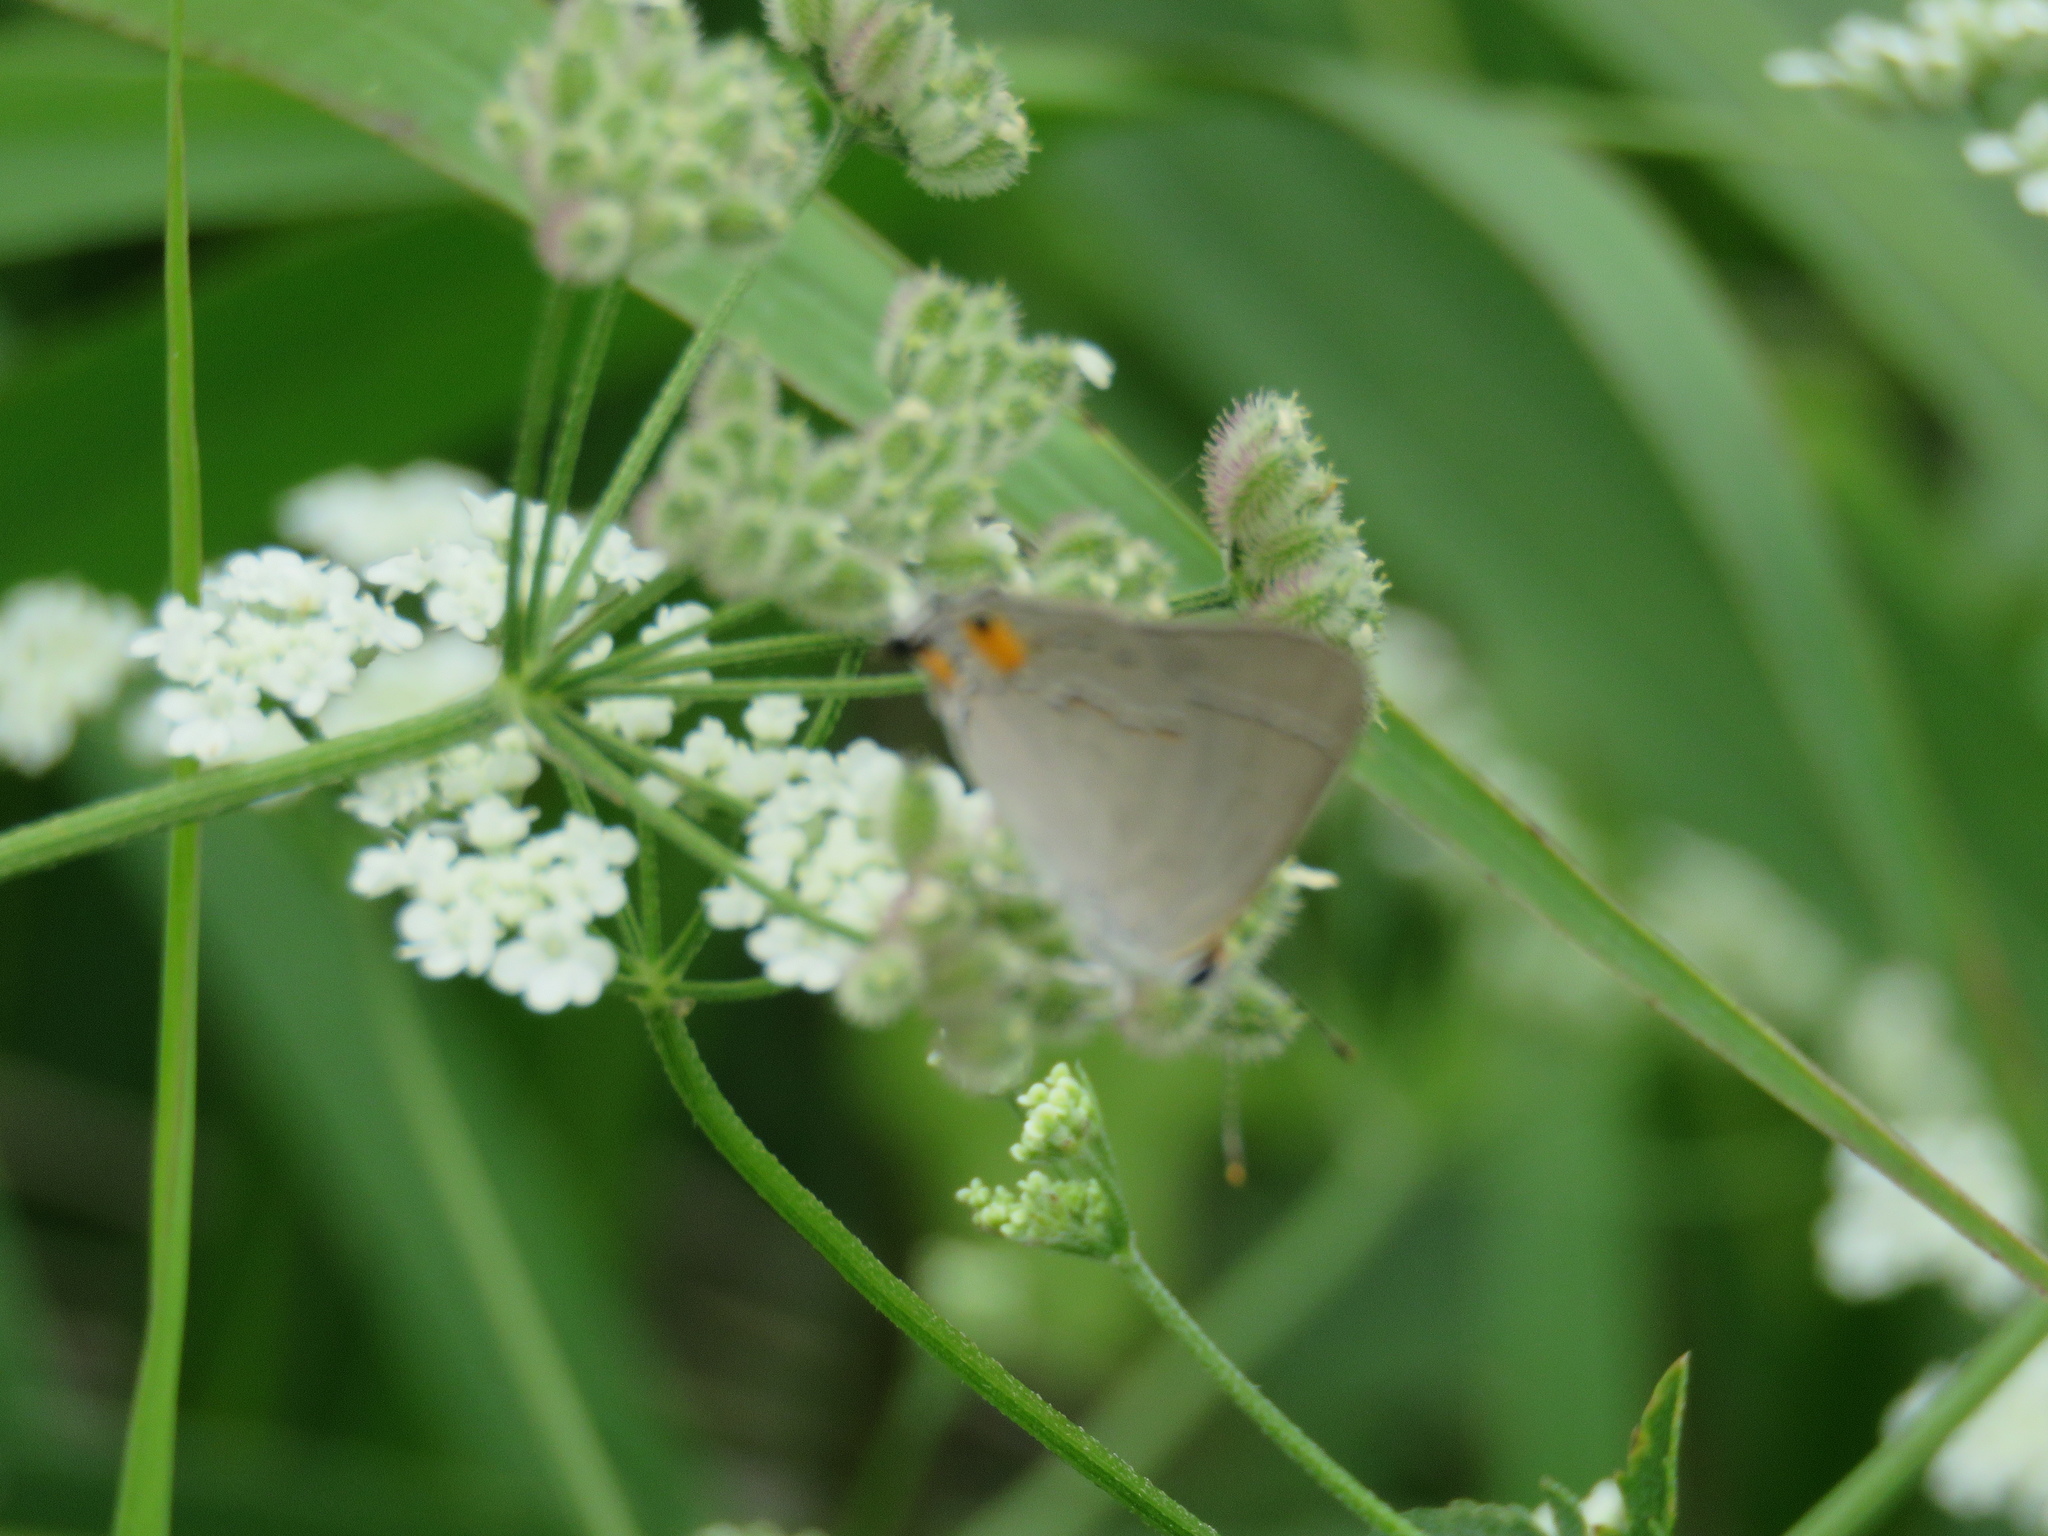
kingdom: Animalia
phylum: Arthropoda
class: Insecta
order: Lepidoptera
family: Lycaenidae
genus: Strymon
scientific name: Strymon melinus
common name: Gray hairstreak
